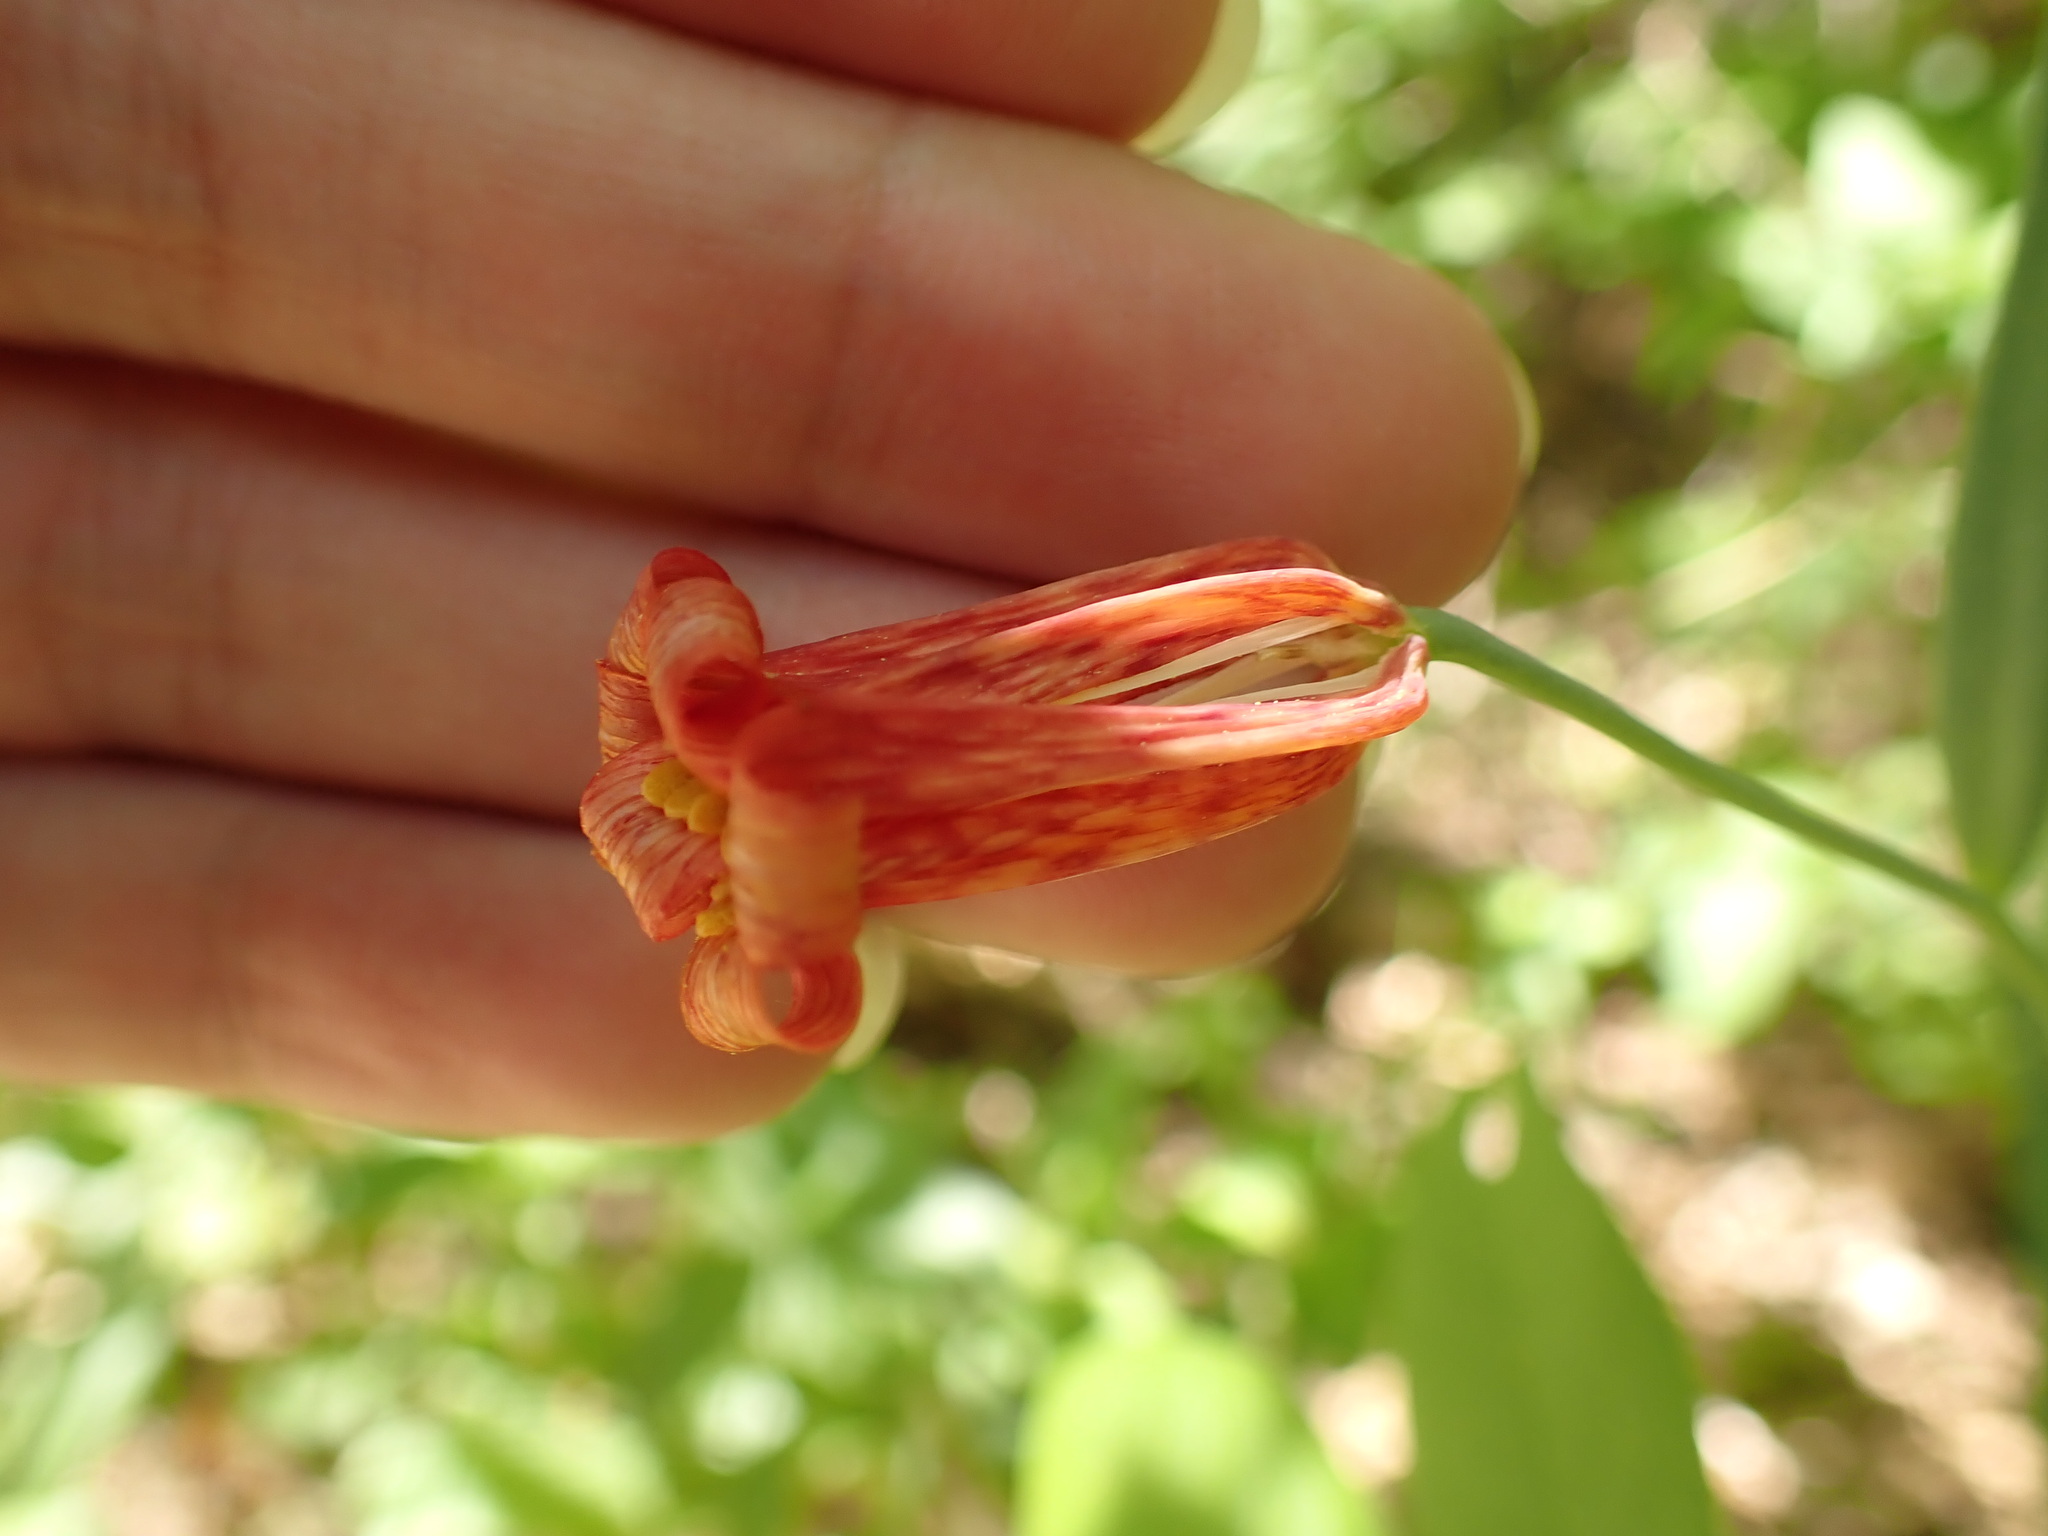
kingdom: Plantae
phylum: Tracheophyta
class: Liliopsida
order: Liliales
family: Liliaceae
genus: Fritillaria
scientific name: Fritillaria recurva
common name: Scarlet fritillary
